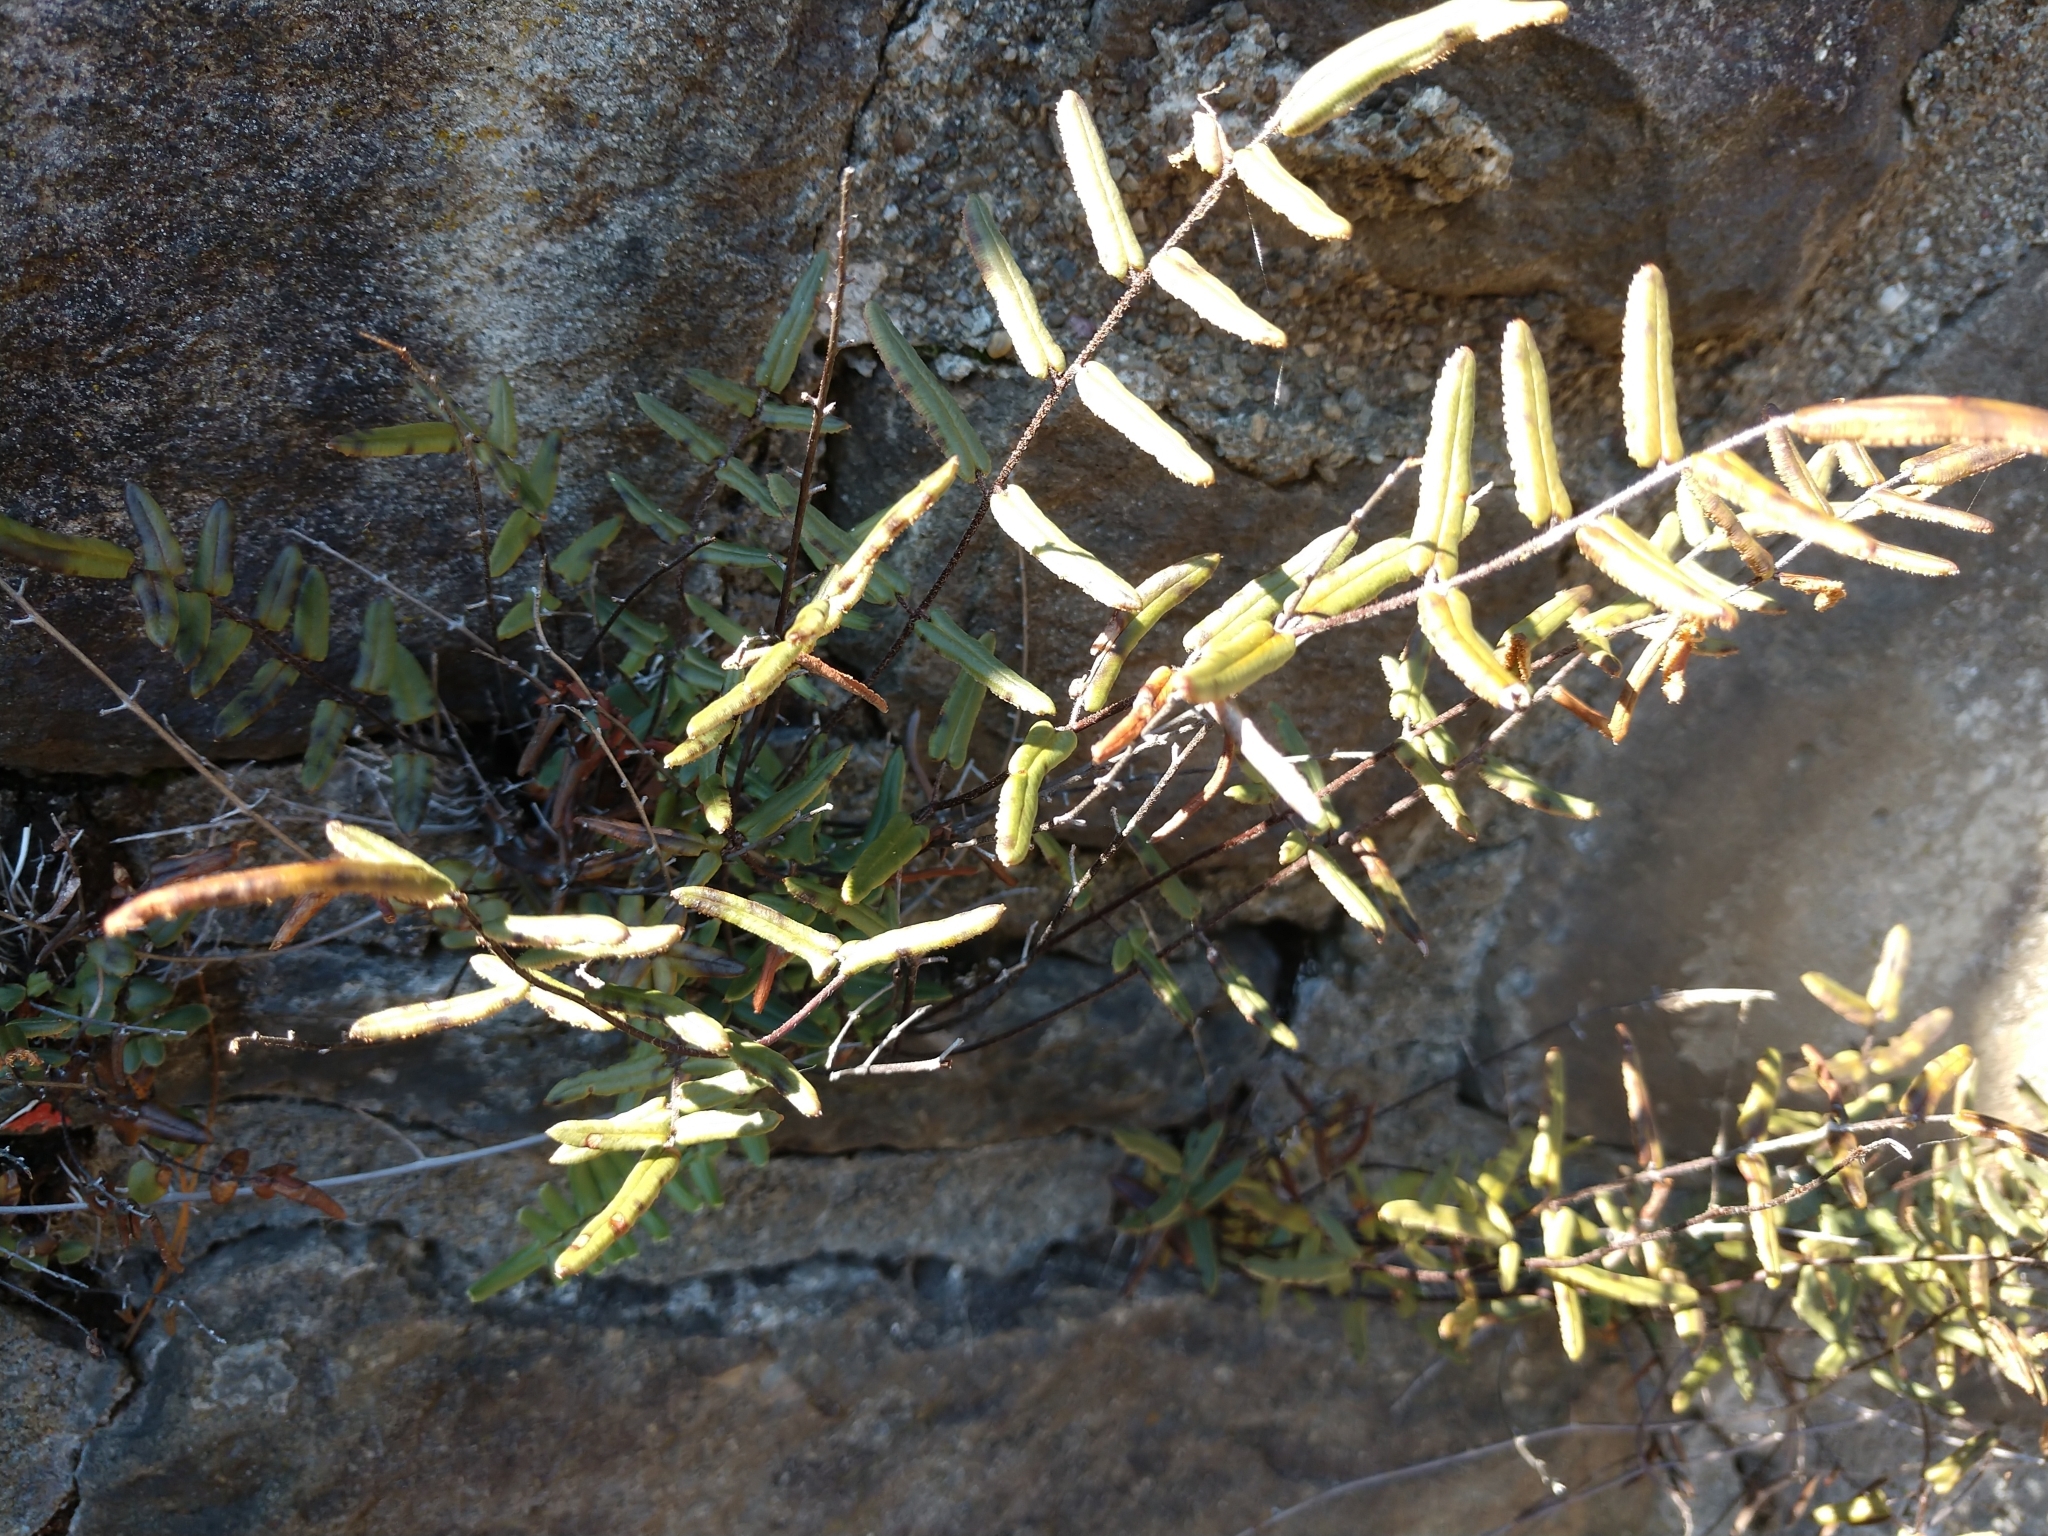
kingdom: Plantae
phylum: Tracheophyta
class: Polypodiopsida
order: Polypodiales
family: Pteridaceae
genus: Pellaea
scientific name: Pellaea atropurpurea
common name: Hairy cliffbrake
